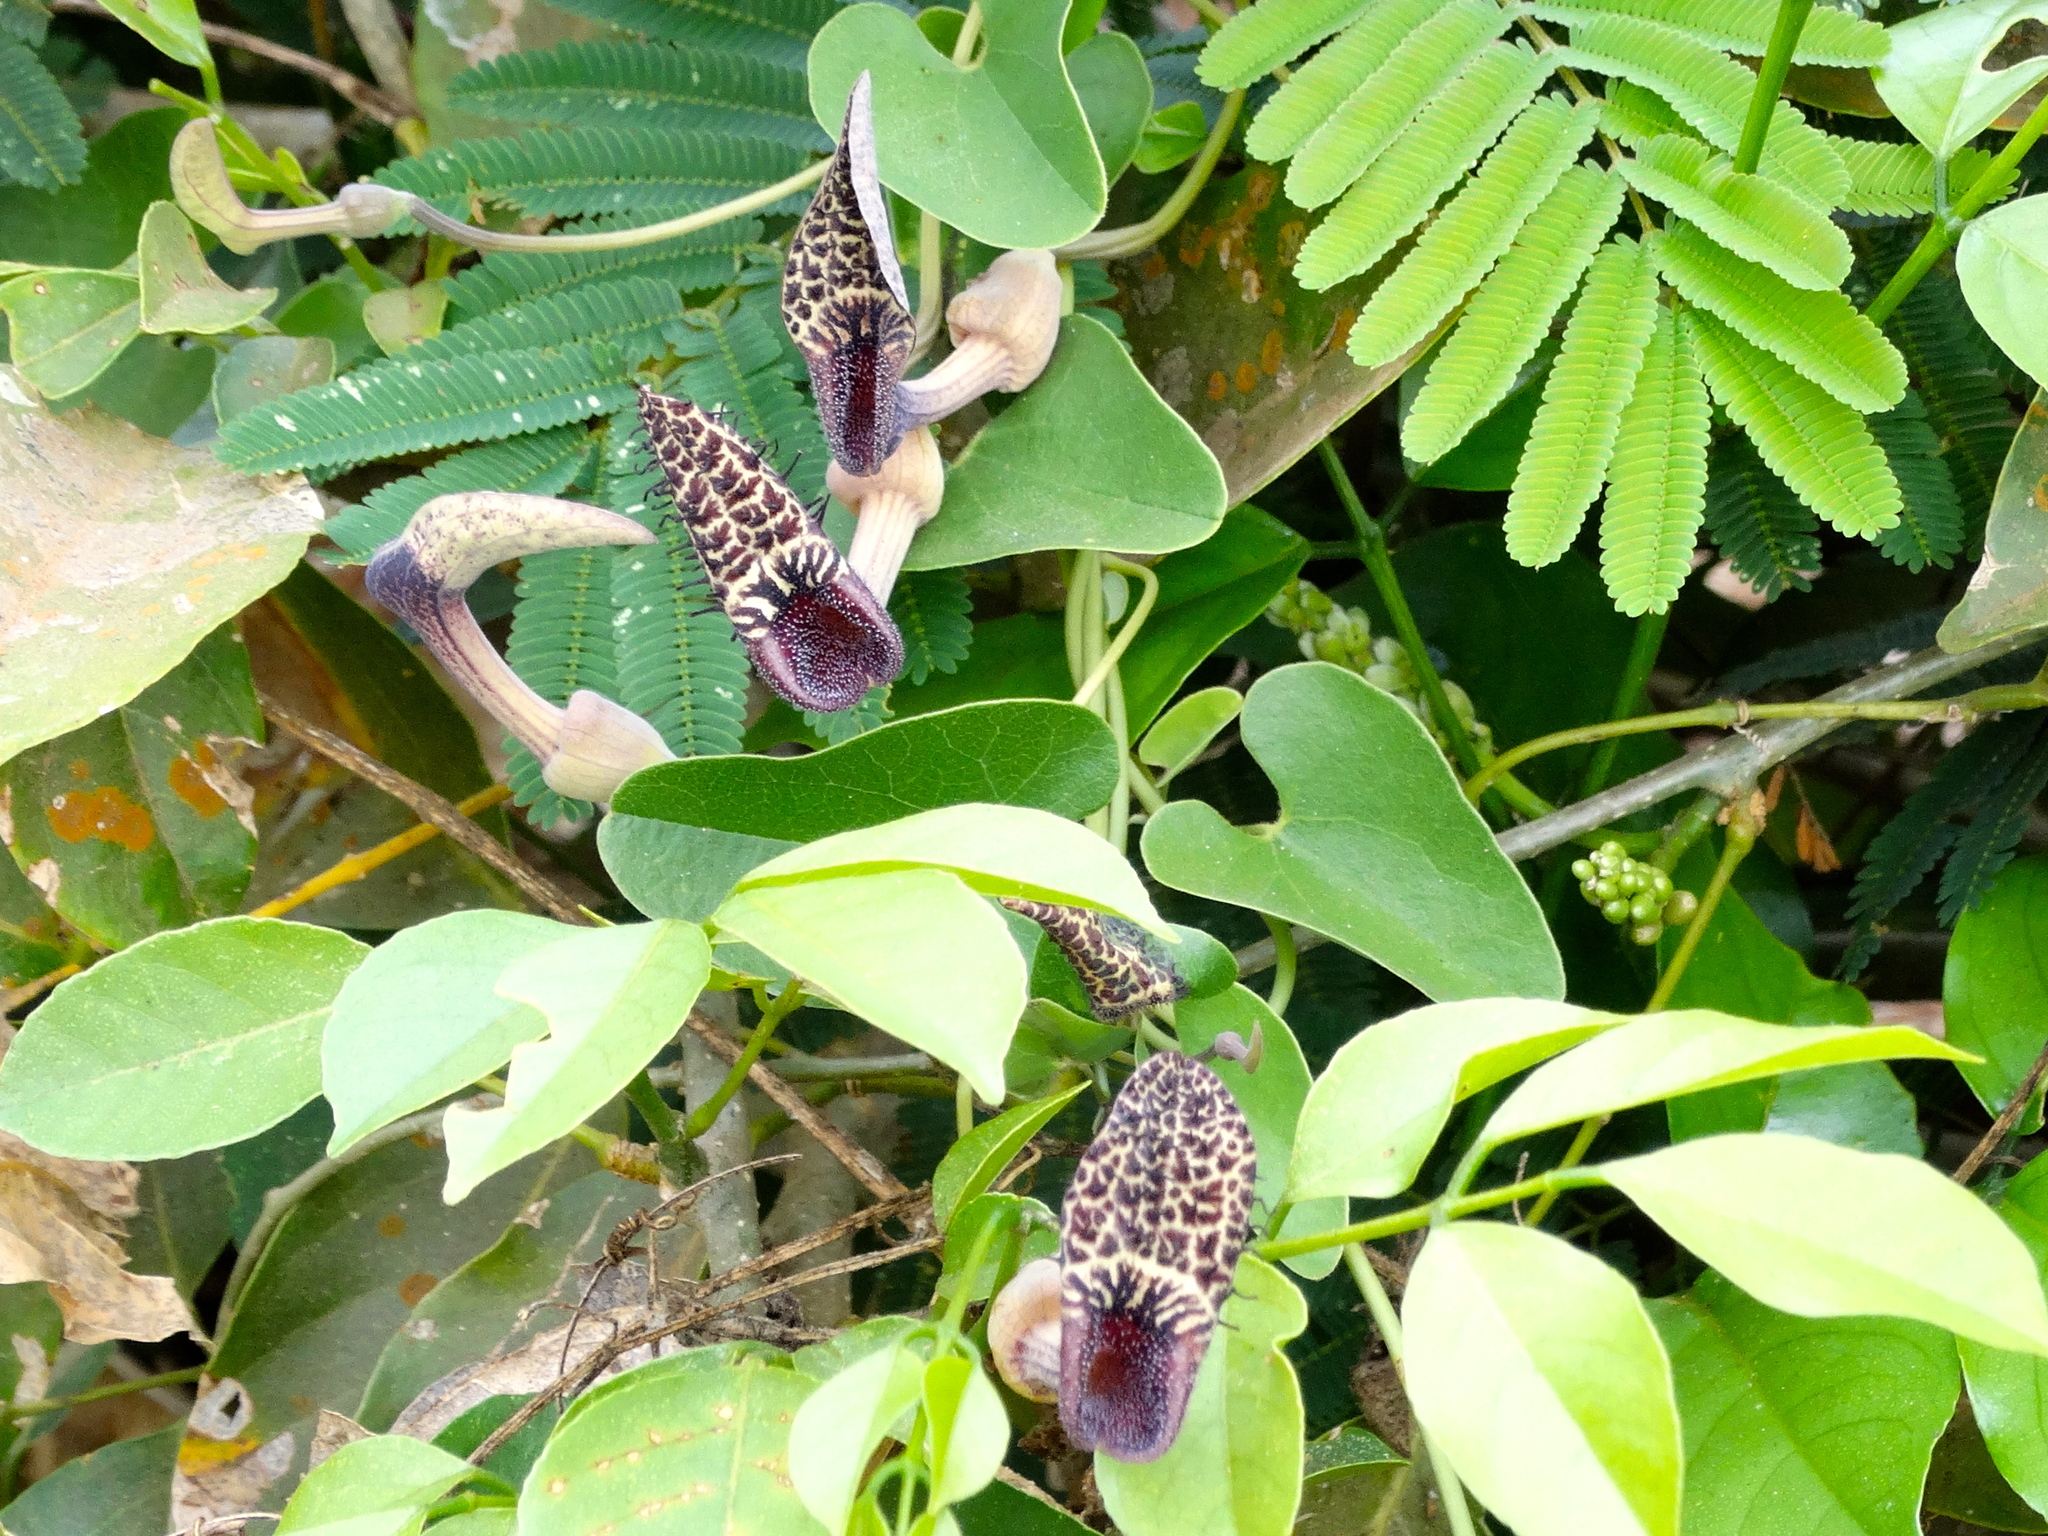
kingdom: Plantae
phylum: Tracheophyta
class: Magnoliopsida
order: Piperales
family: Aristolochiaceae
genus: Aristolochia
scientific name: Aristolochia taliscana
